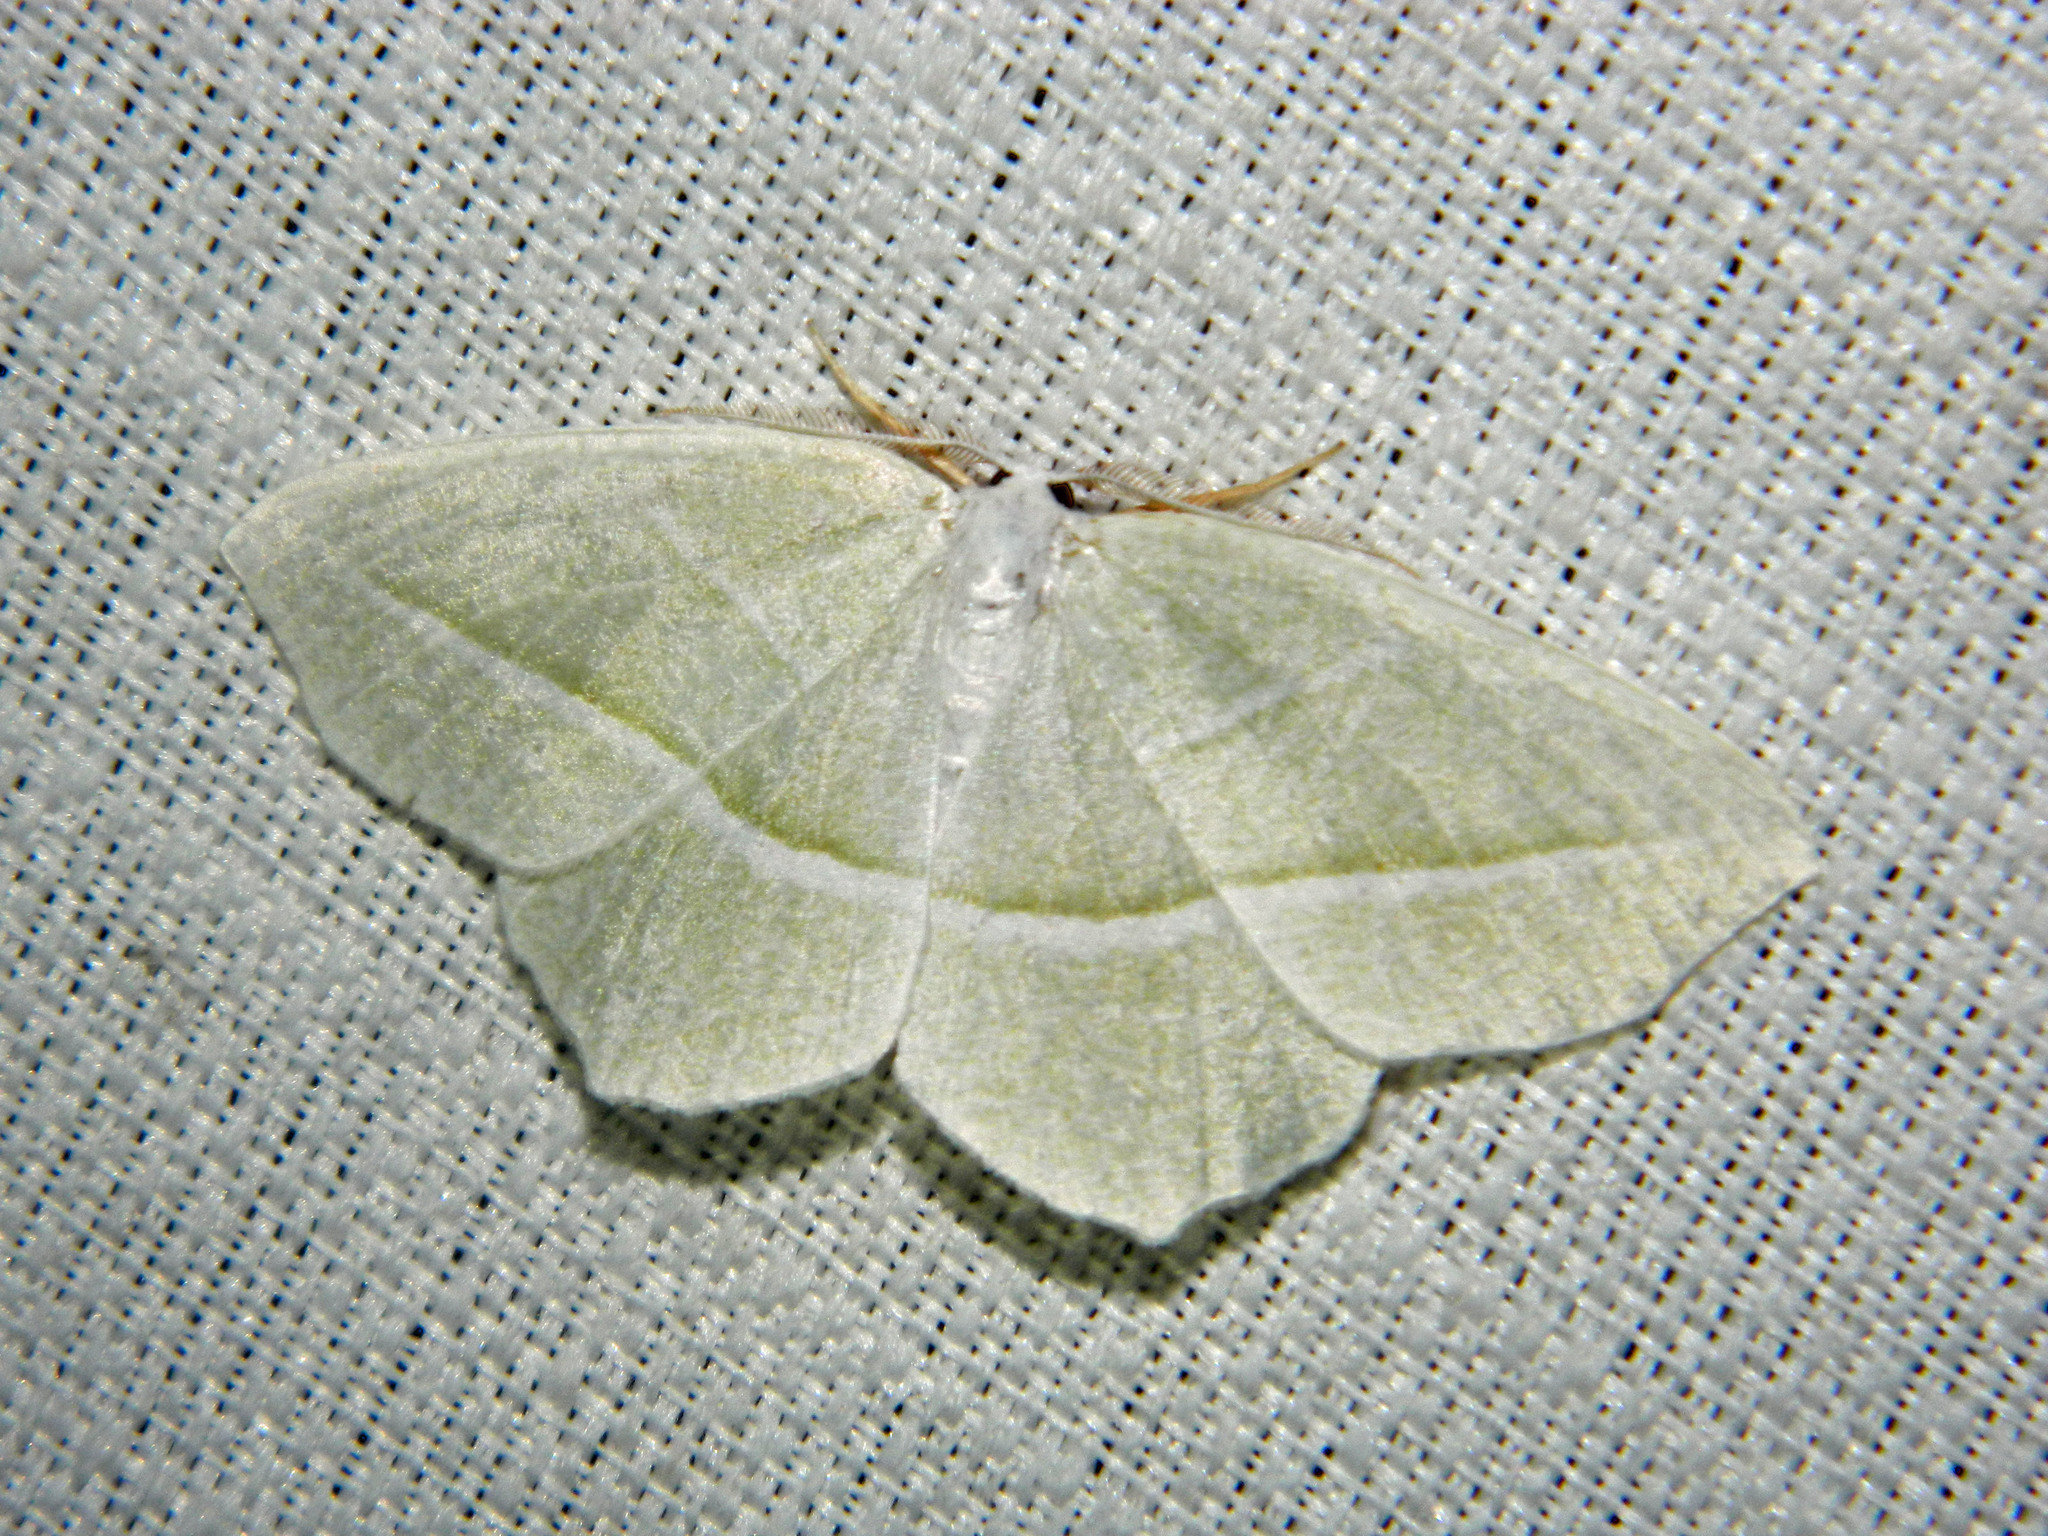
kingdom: Animalia
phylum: Arthropoda
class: Insecta
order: Lepidoptera
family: Geometridae
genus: Campaea
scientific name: Campaea perlata
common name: Fringed looper
